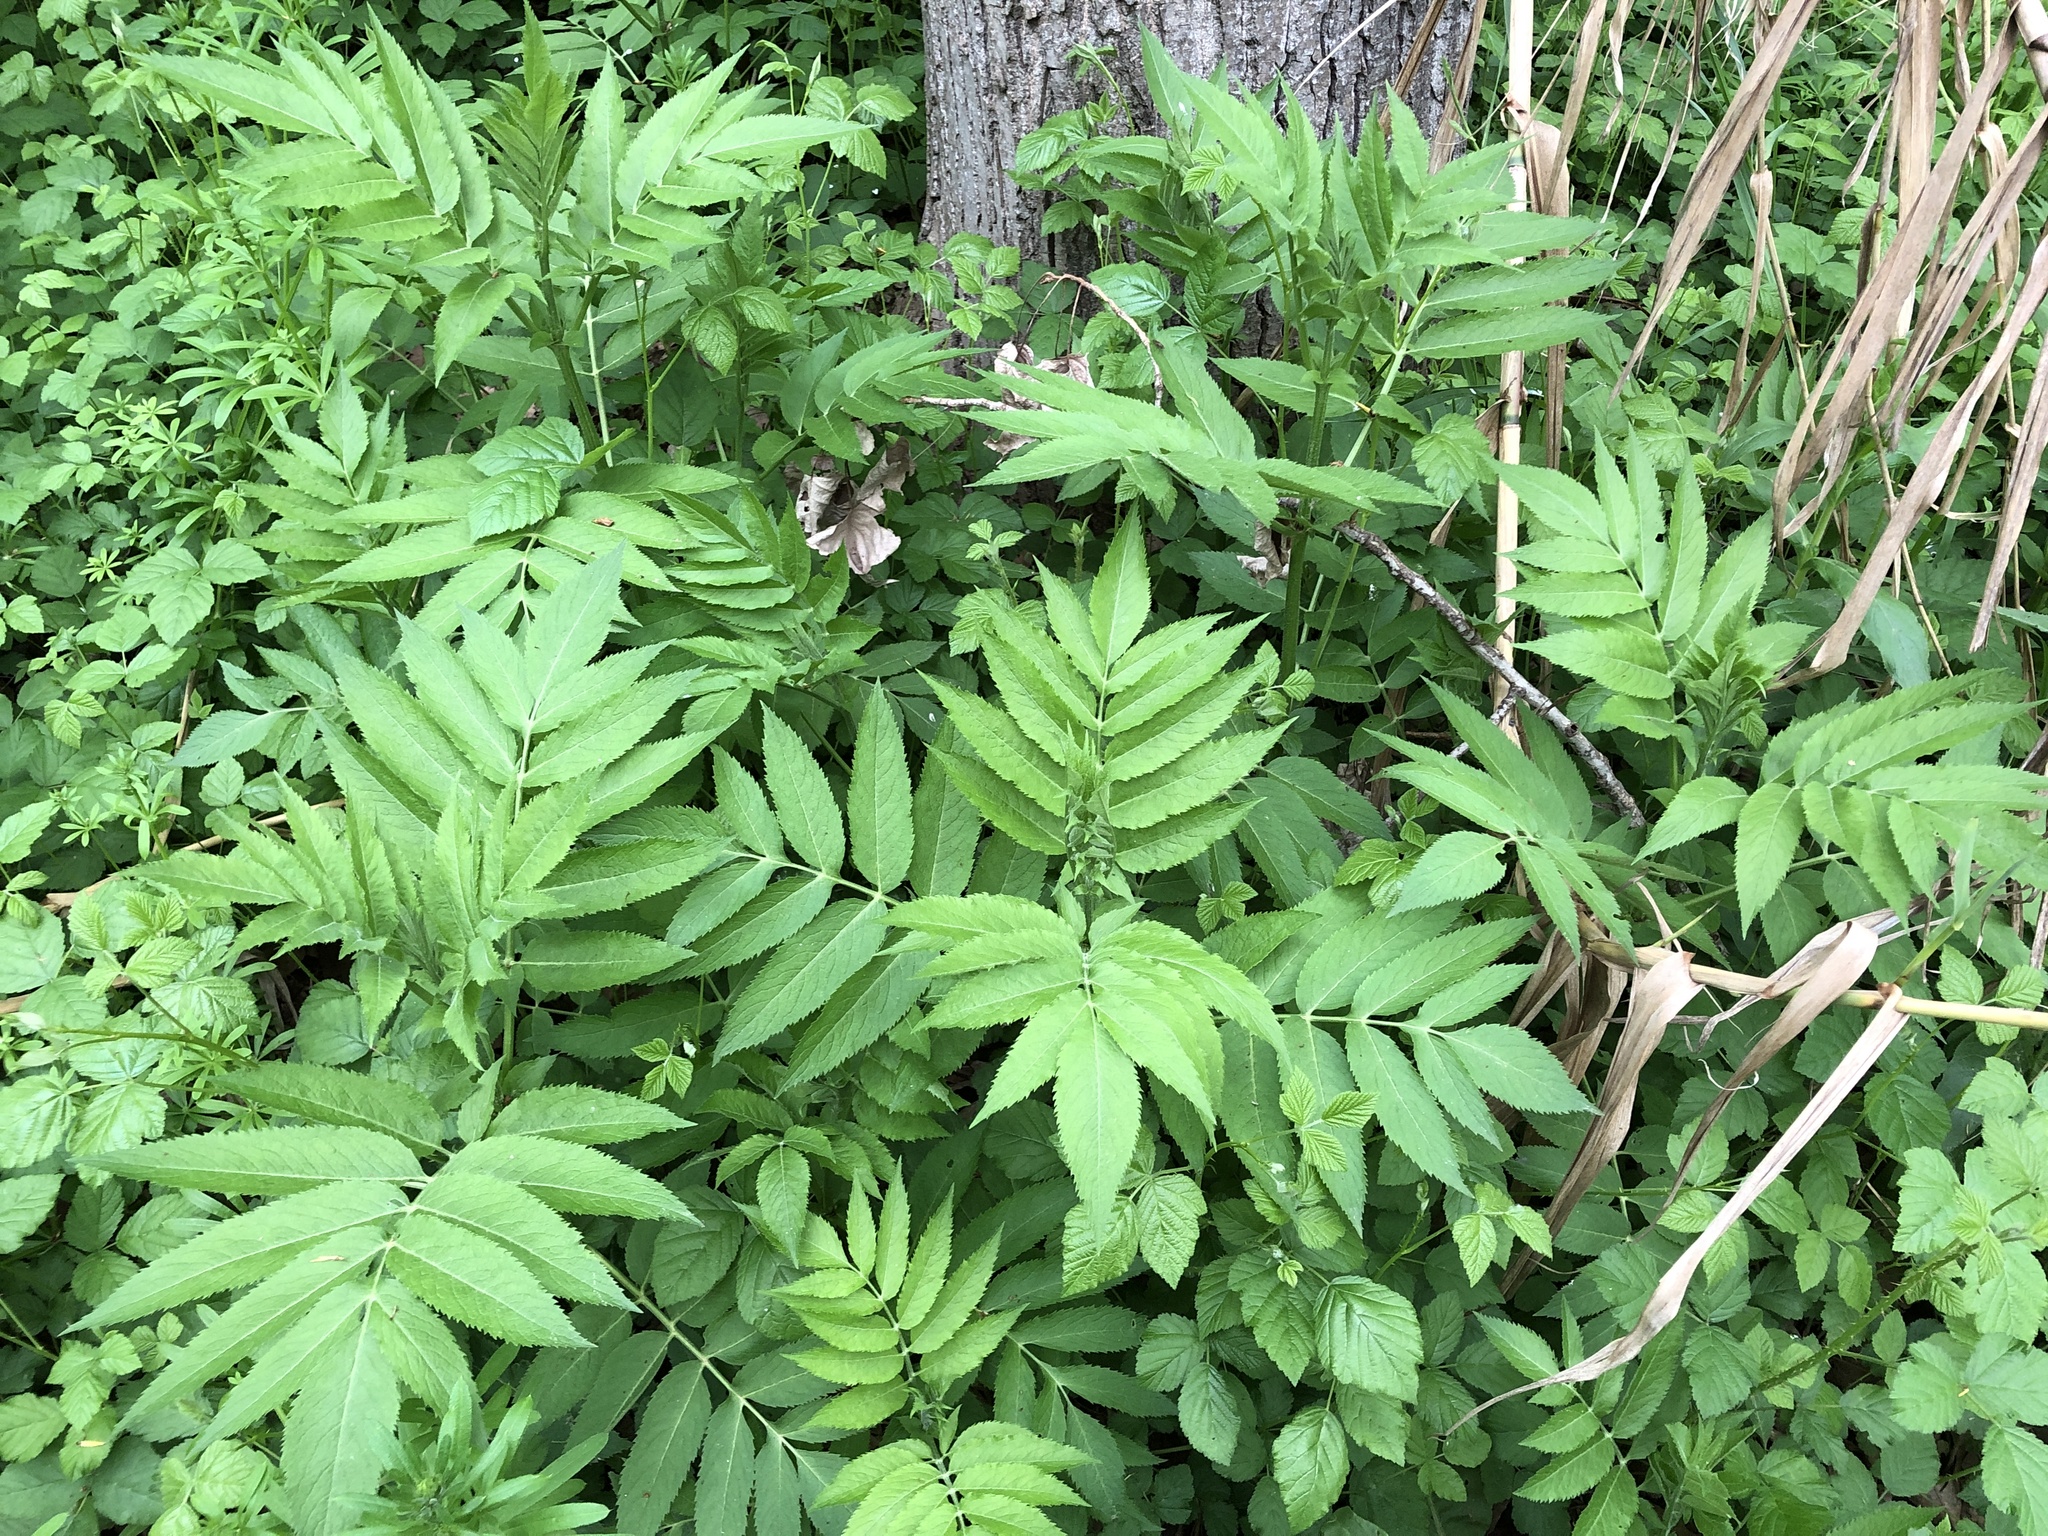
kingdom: Plantae
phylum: Tracheophyta
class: Magnoliopsida
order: Dipsacales
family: Viburnaceae
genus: Sambucus
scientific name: Sambucus ebulus
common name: Dwarf elder
